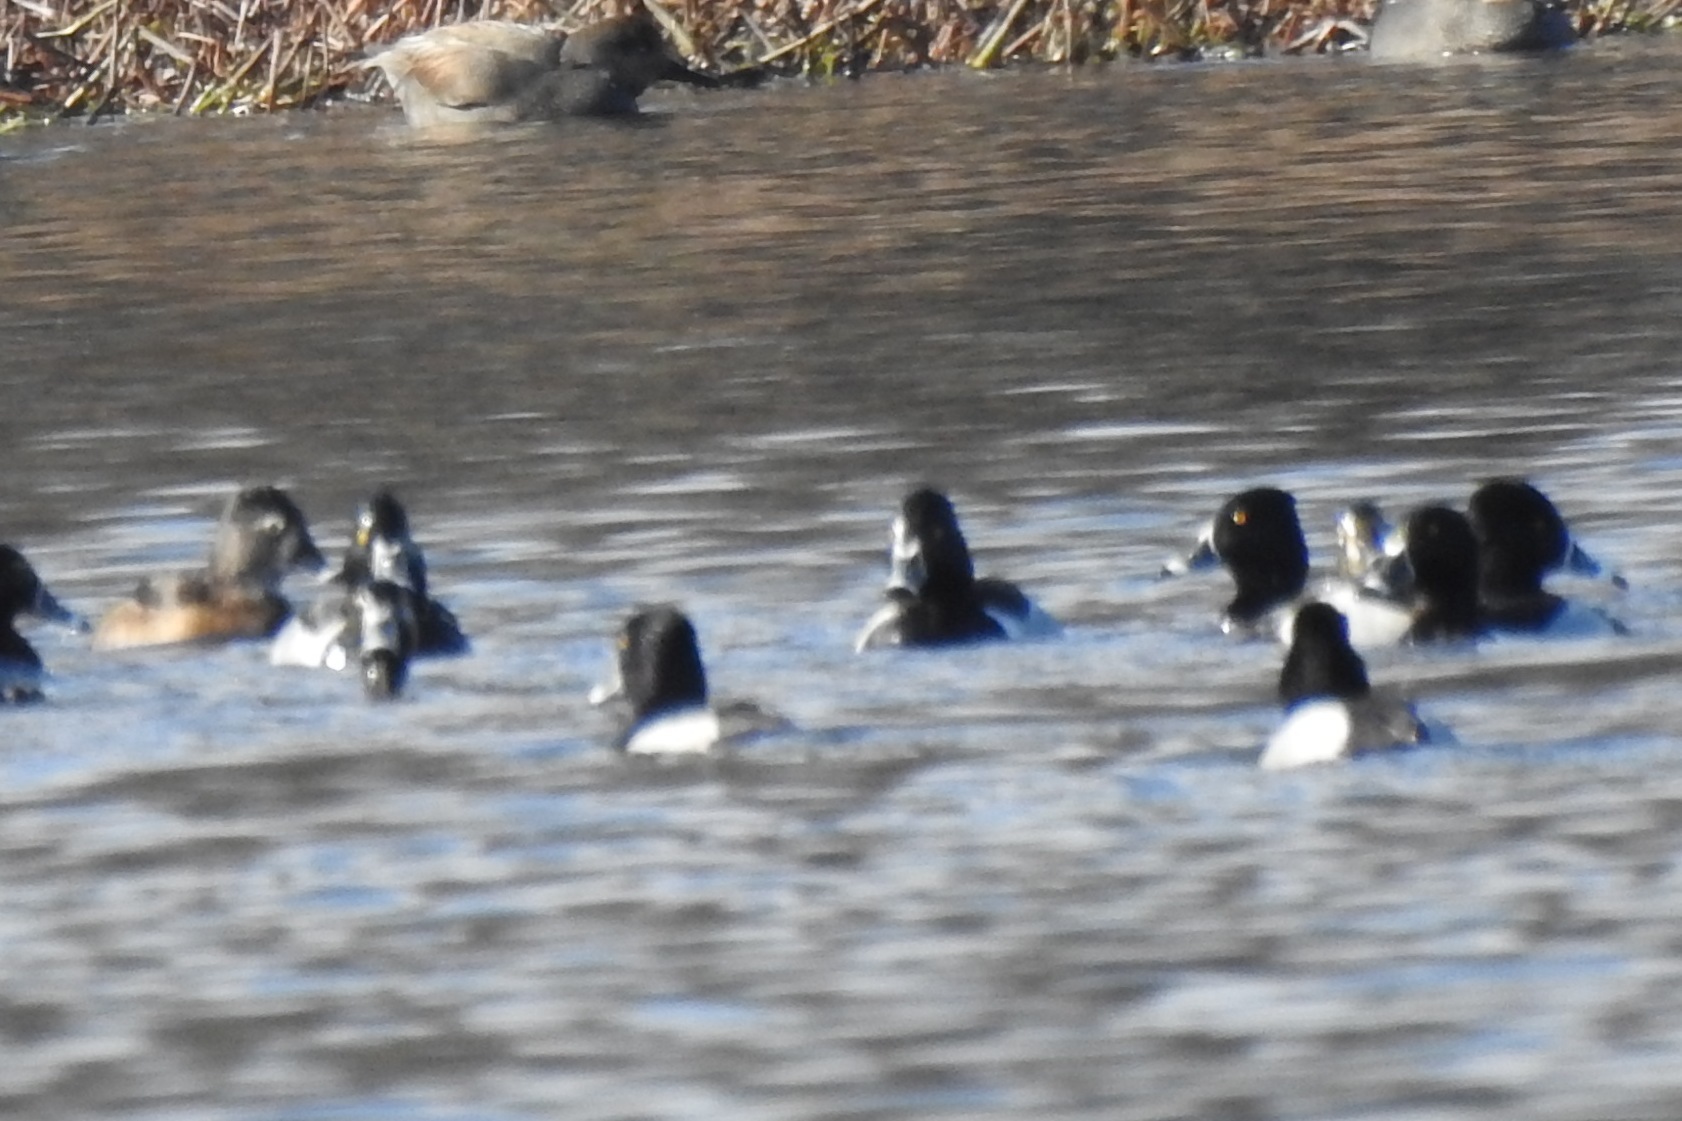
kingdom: Animalia
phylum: Chordata
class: Aves
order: Anseriformes
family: Anatidae
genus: Aythya
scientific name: Aythya collaris
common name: Ring-necked duck
